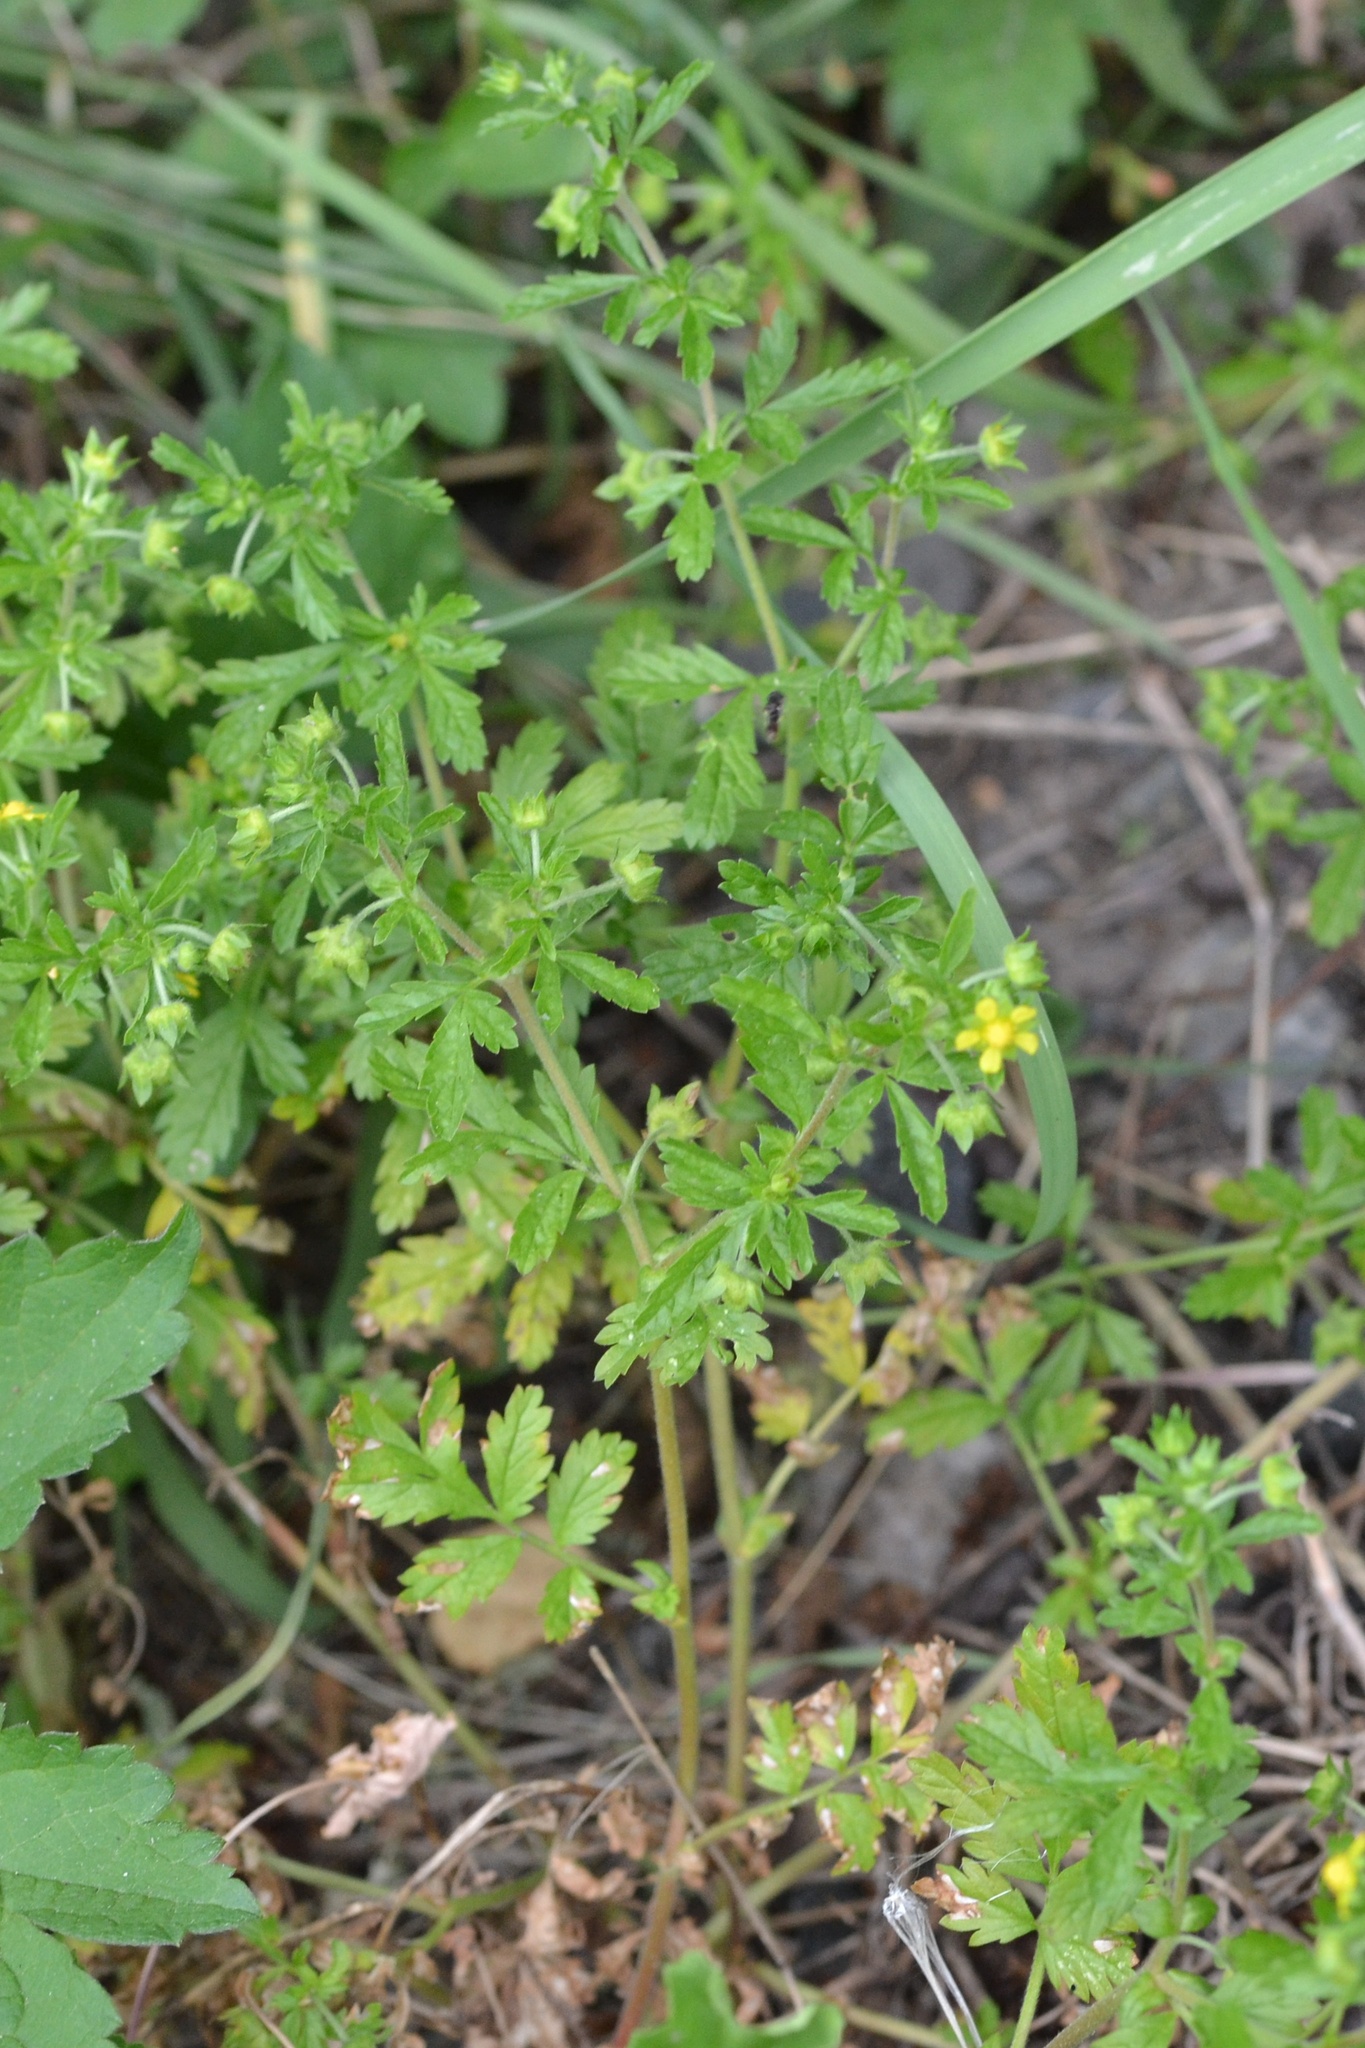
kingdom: Plantae
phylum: Tracheophyta
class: Magnoliopsida
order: Rosales
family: Rosaceae
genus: Potentilla
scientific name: Potentilla supina
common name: Prostrate cinquefoil
